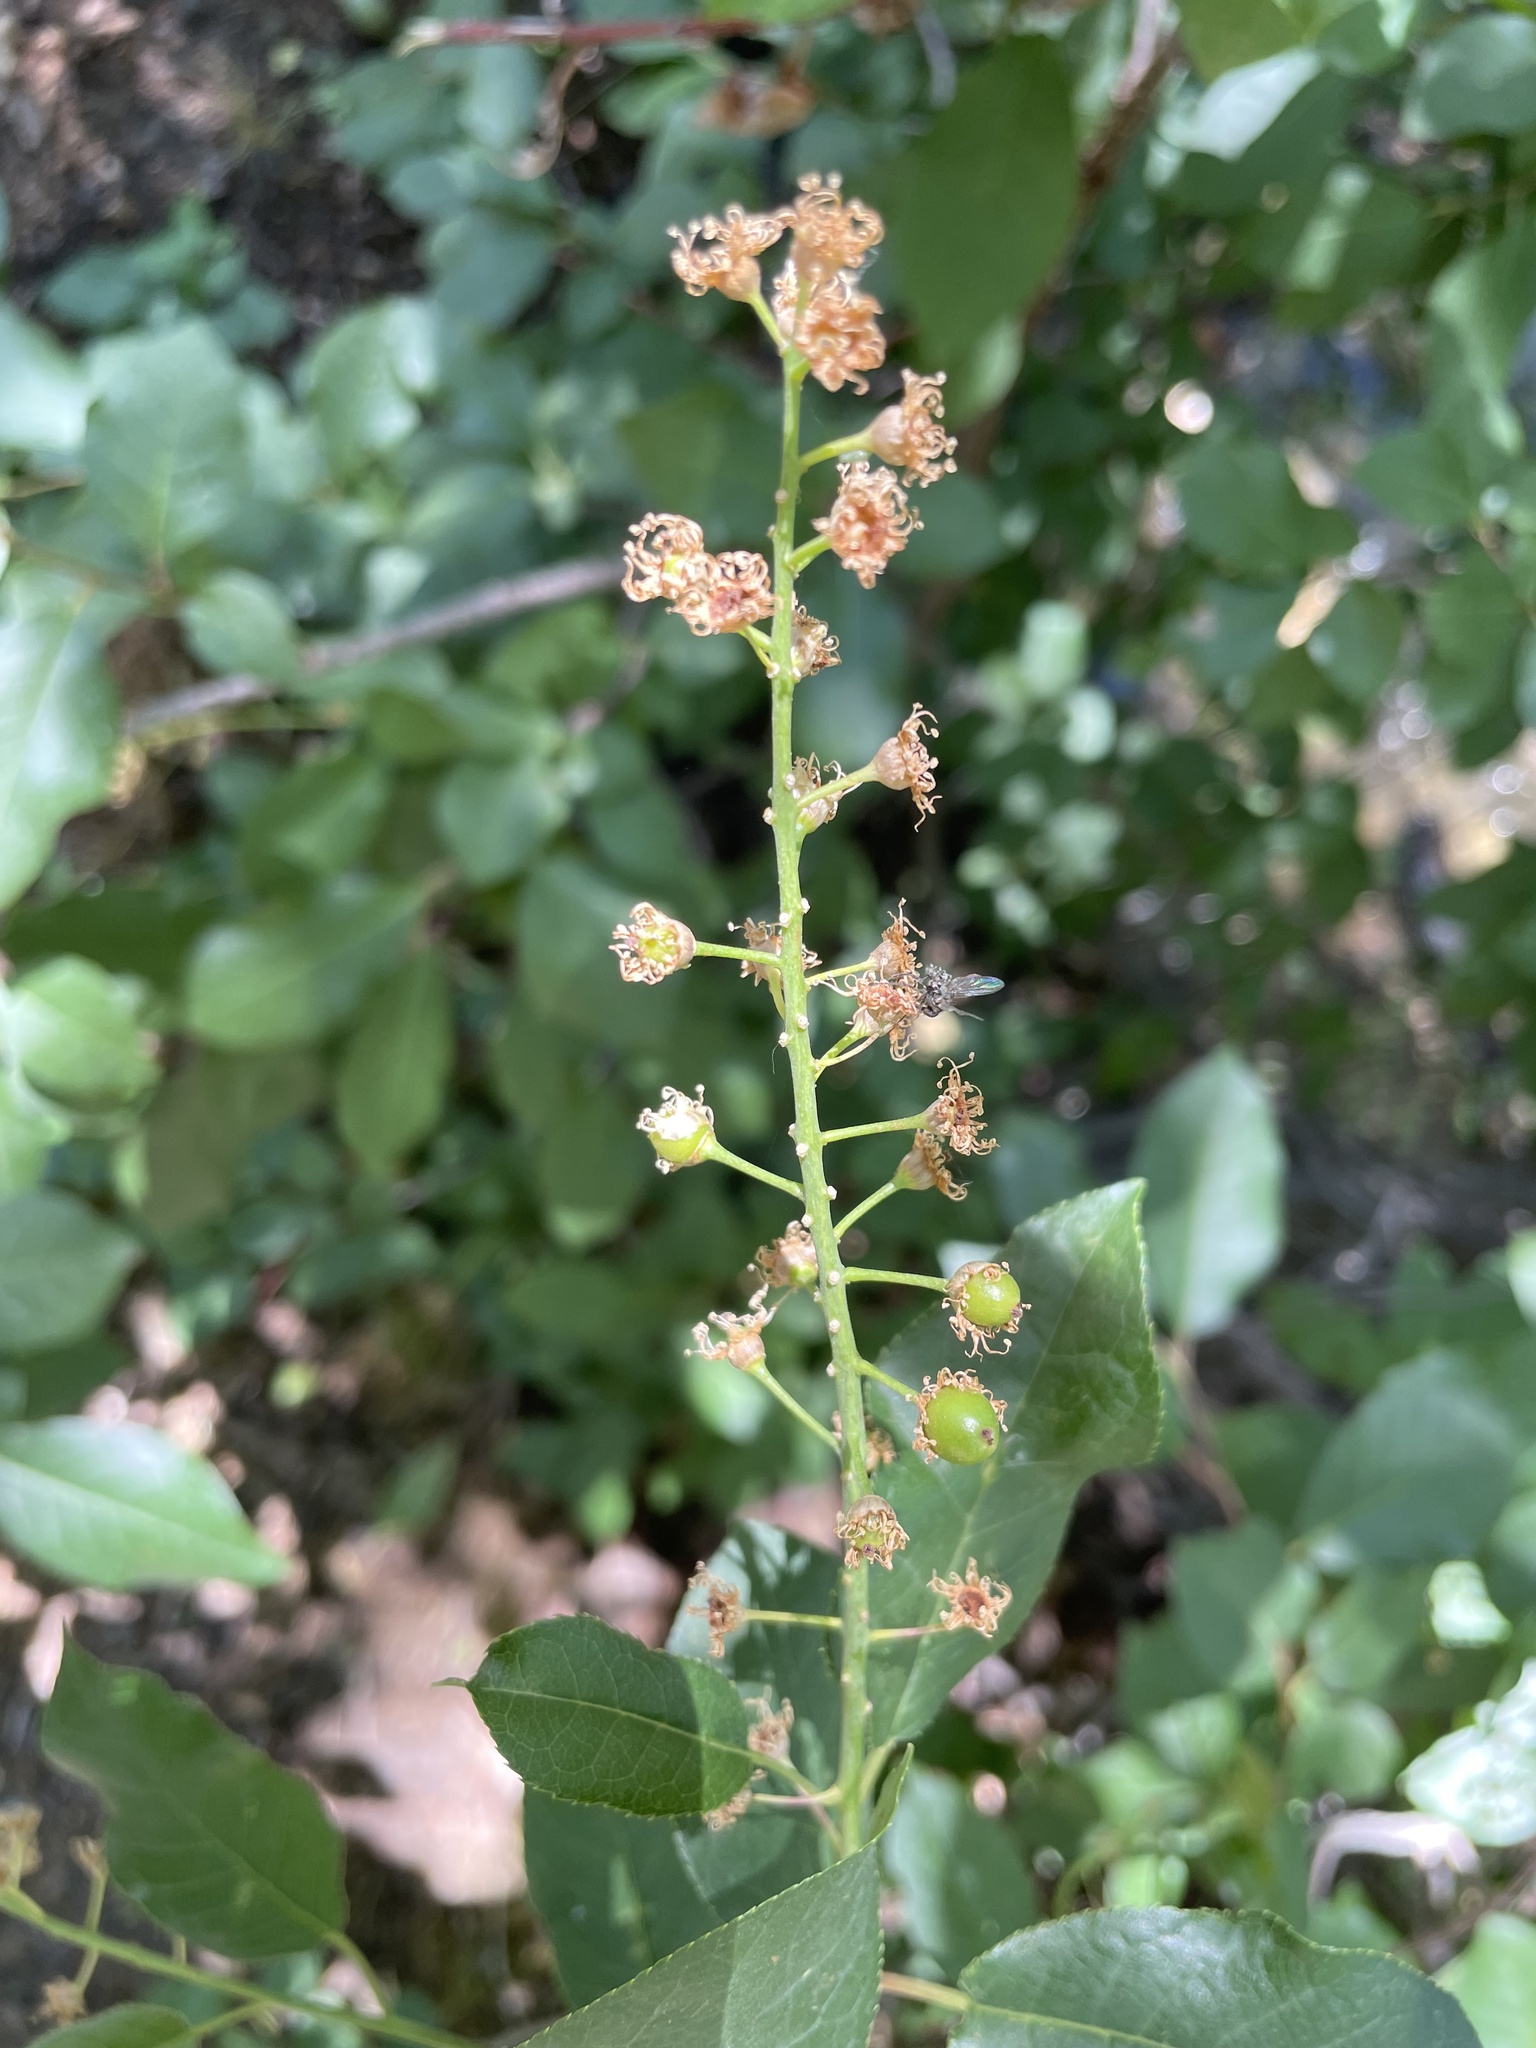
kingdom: Plantae
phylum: Tracheophyta
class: Magnoliopsida
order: Rosales
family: Rosaceae
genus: Prunus
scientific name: Prunus virginiana
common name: Chokecherry
